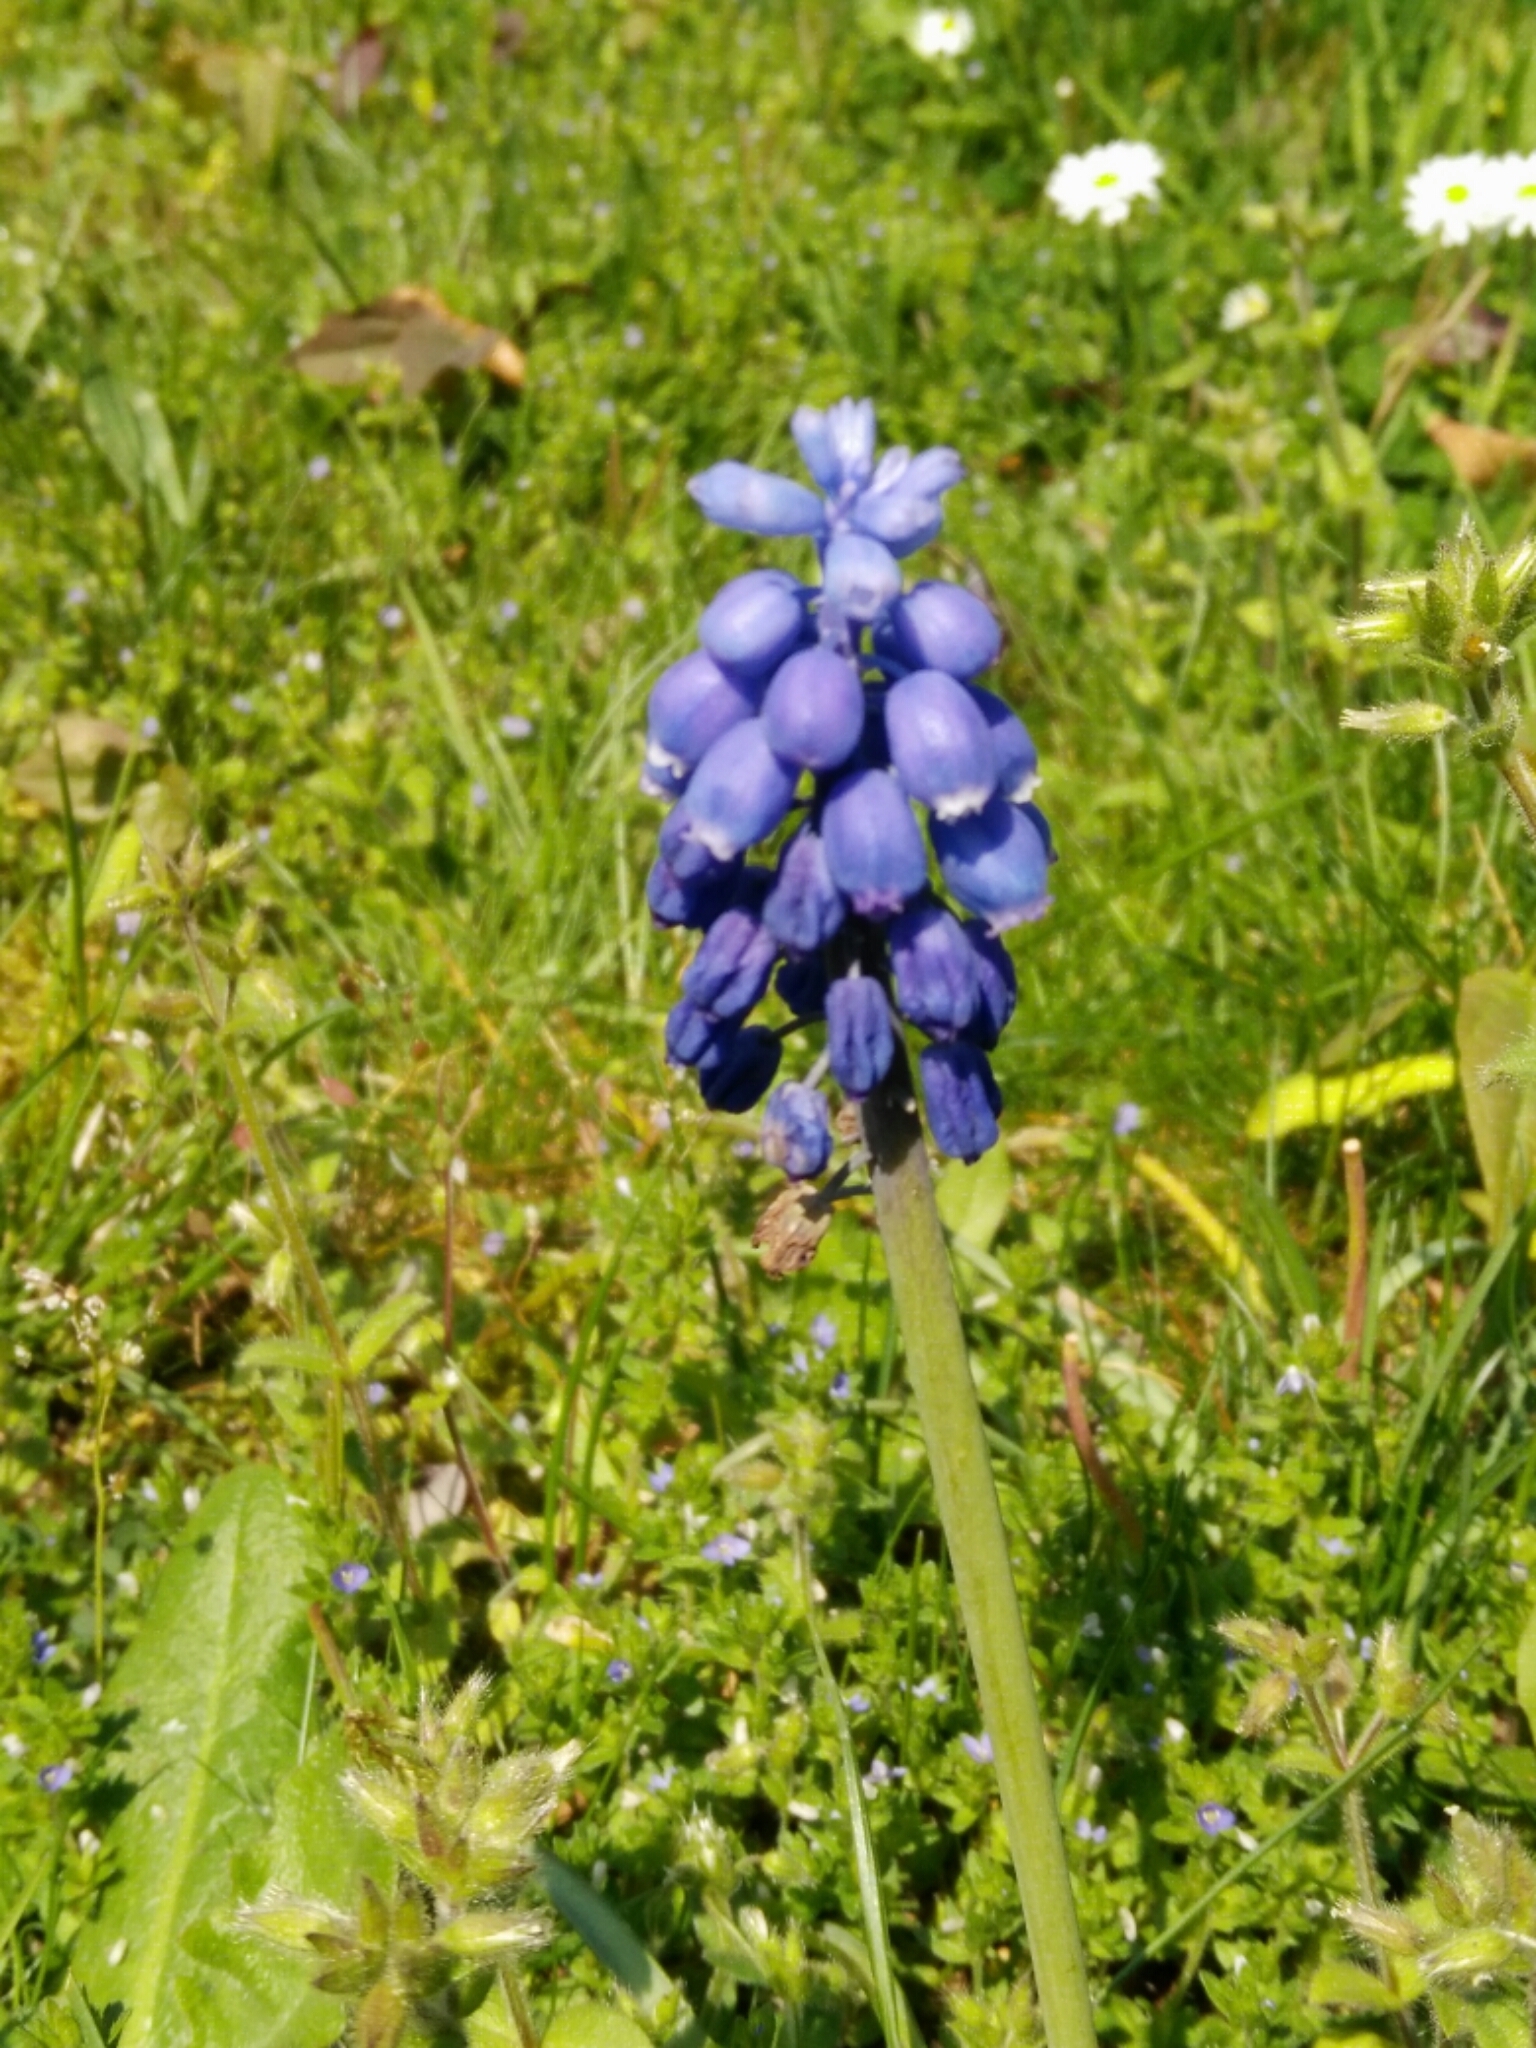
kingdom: Plantae
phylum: Tracheophyta
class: Liliopsida
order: Asparagales
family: Asparagaceae
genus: Muscari
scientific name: Muscari neglectum
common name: Grape-hyacinth
